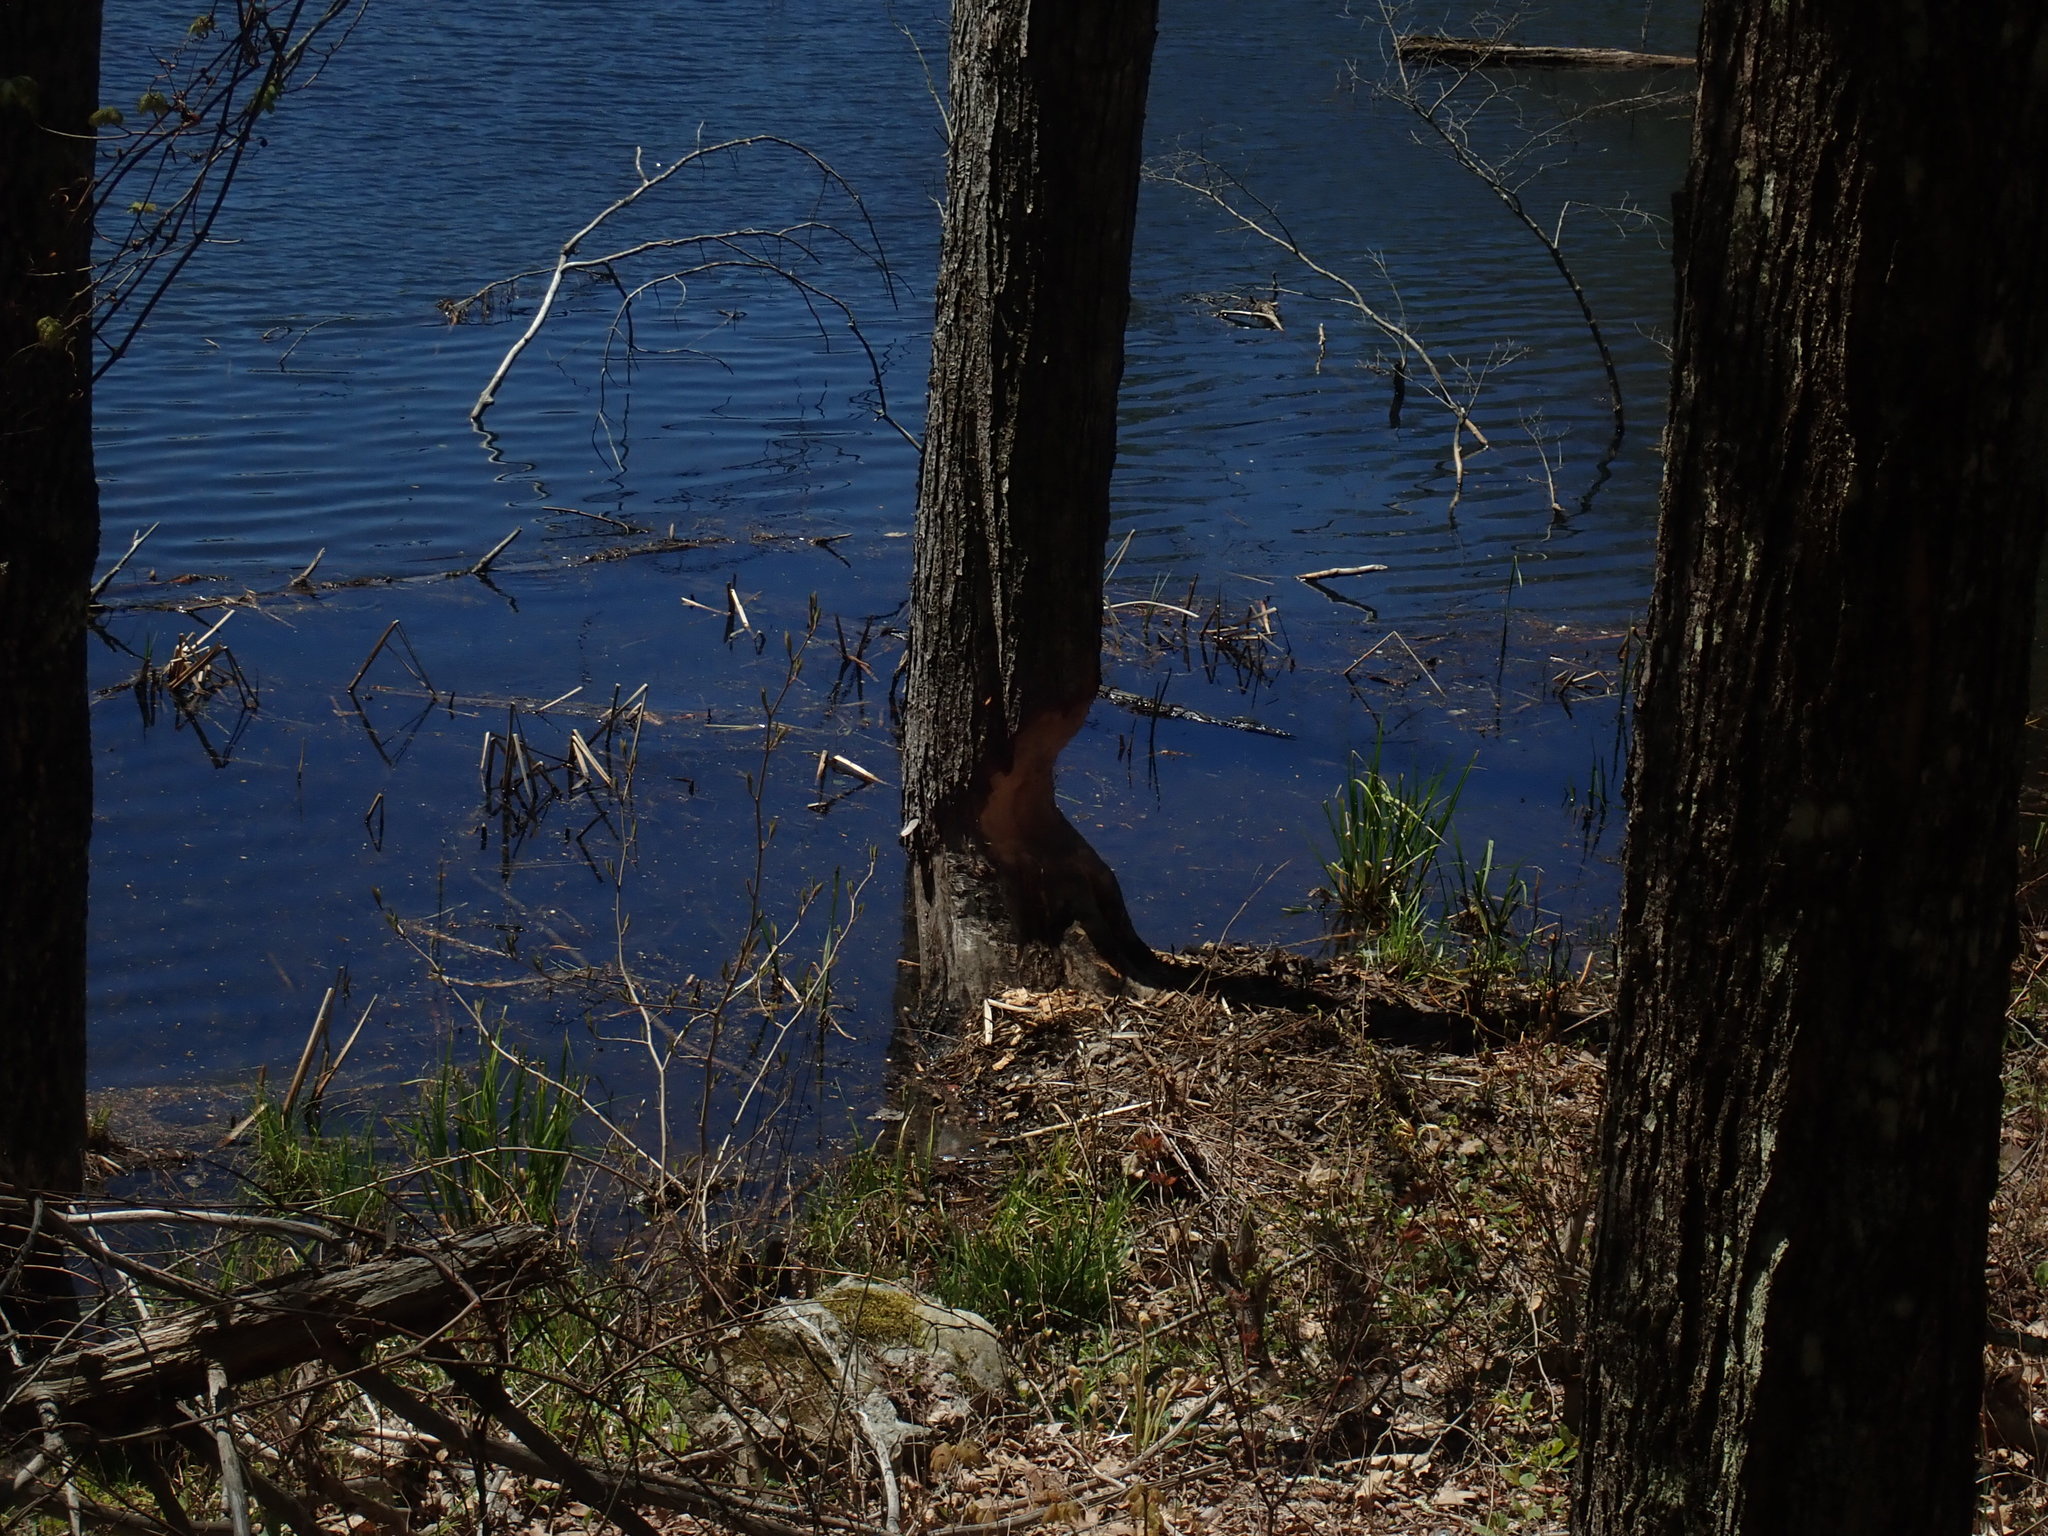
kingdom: Animalia
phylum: Chordata
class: Mammalia
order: Rodentia
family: Castoridae
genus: Castor
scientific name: Castor canadensis
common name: American beaver
